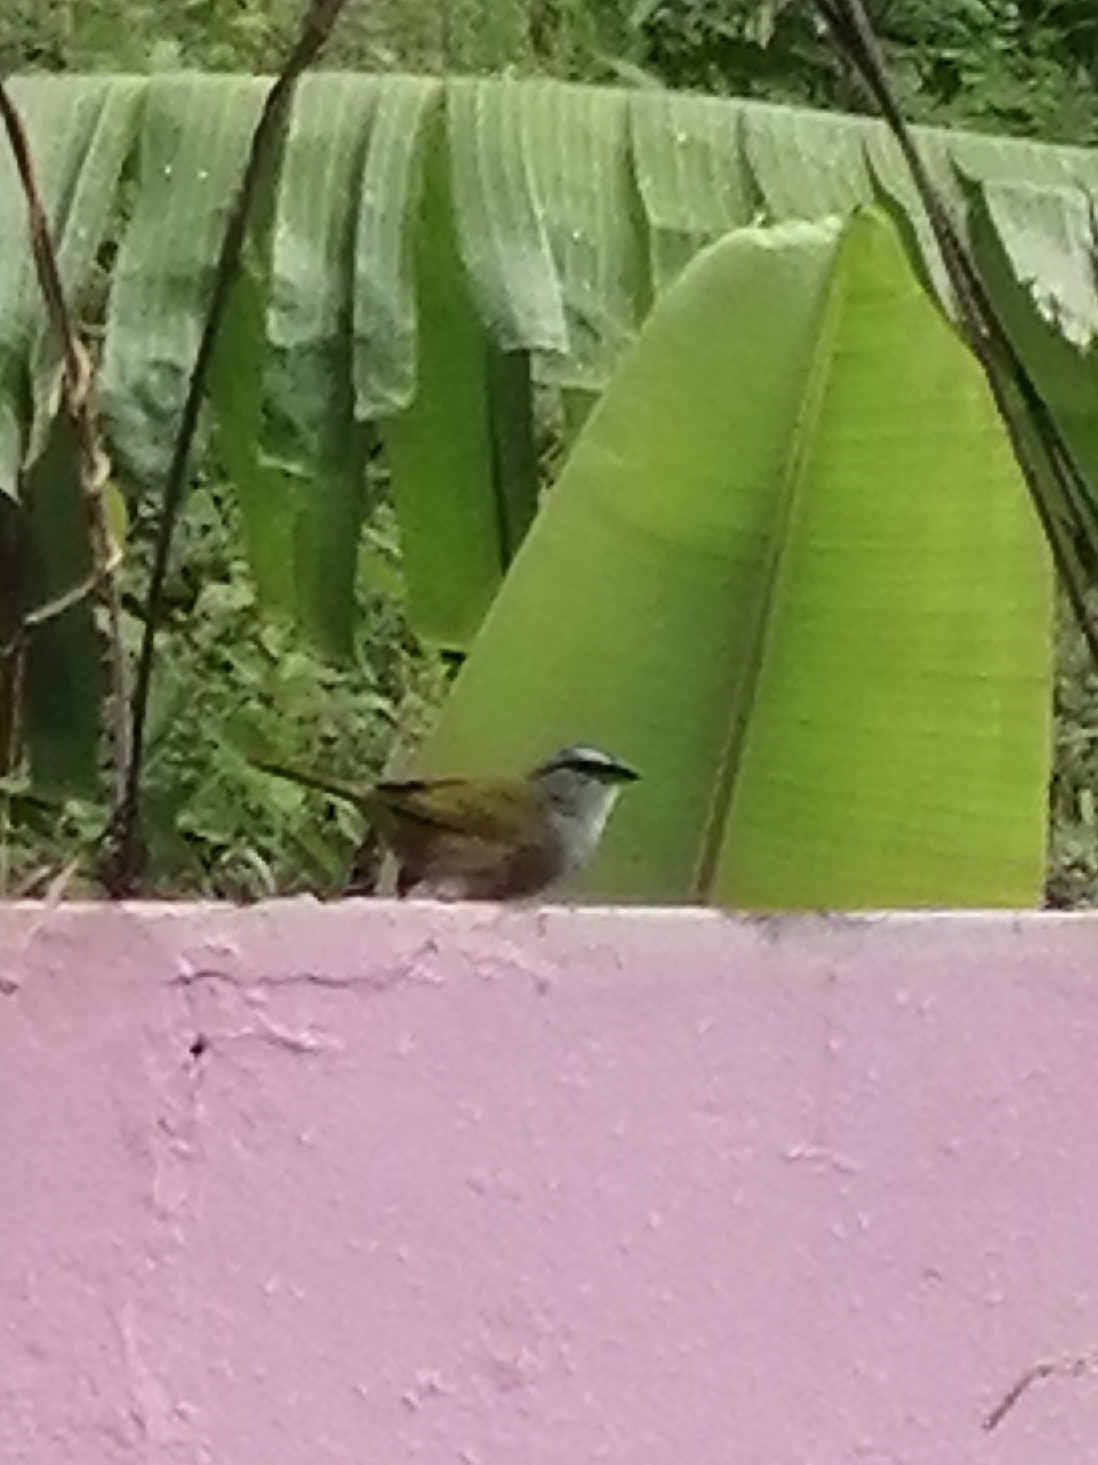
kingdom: Animalia
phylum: Chordata
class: Aves
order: Passeriformes
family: Passerellidae
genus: Arremonops
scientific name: Arremonops conirostris
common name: Black-striped sparrow
